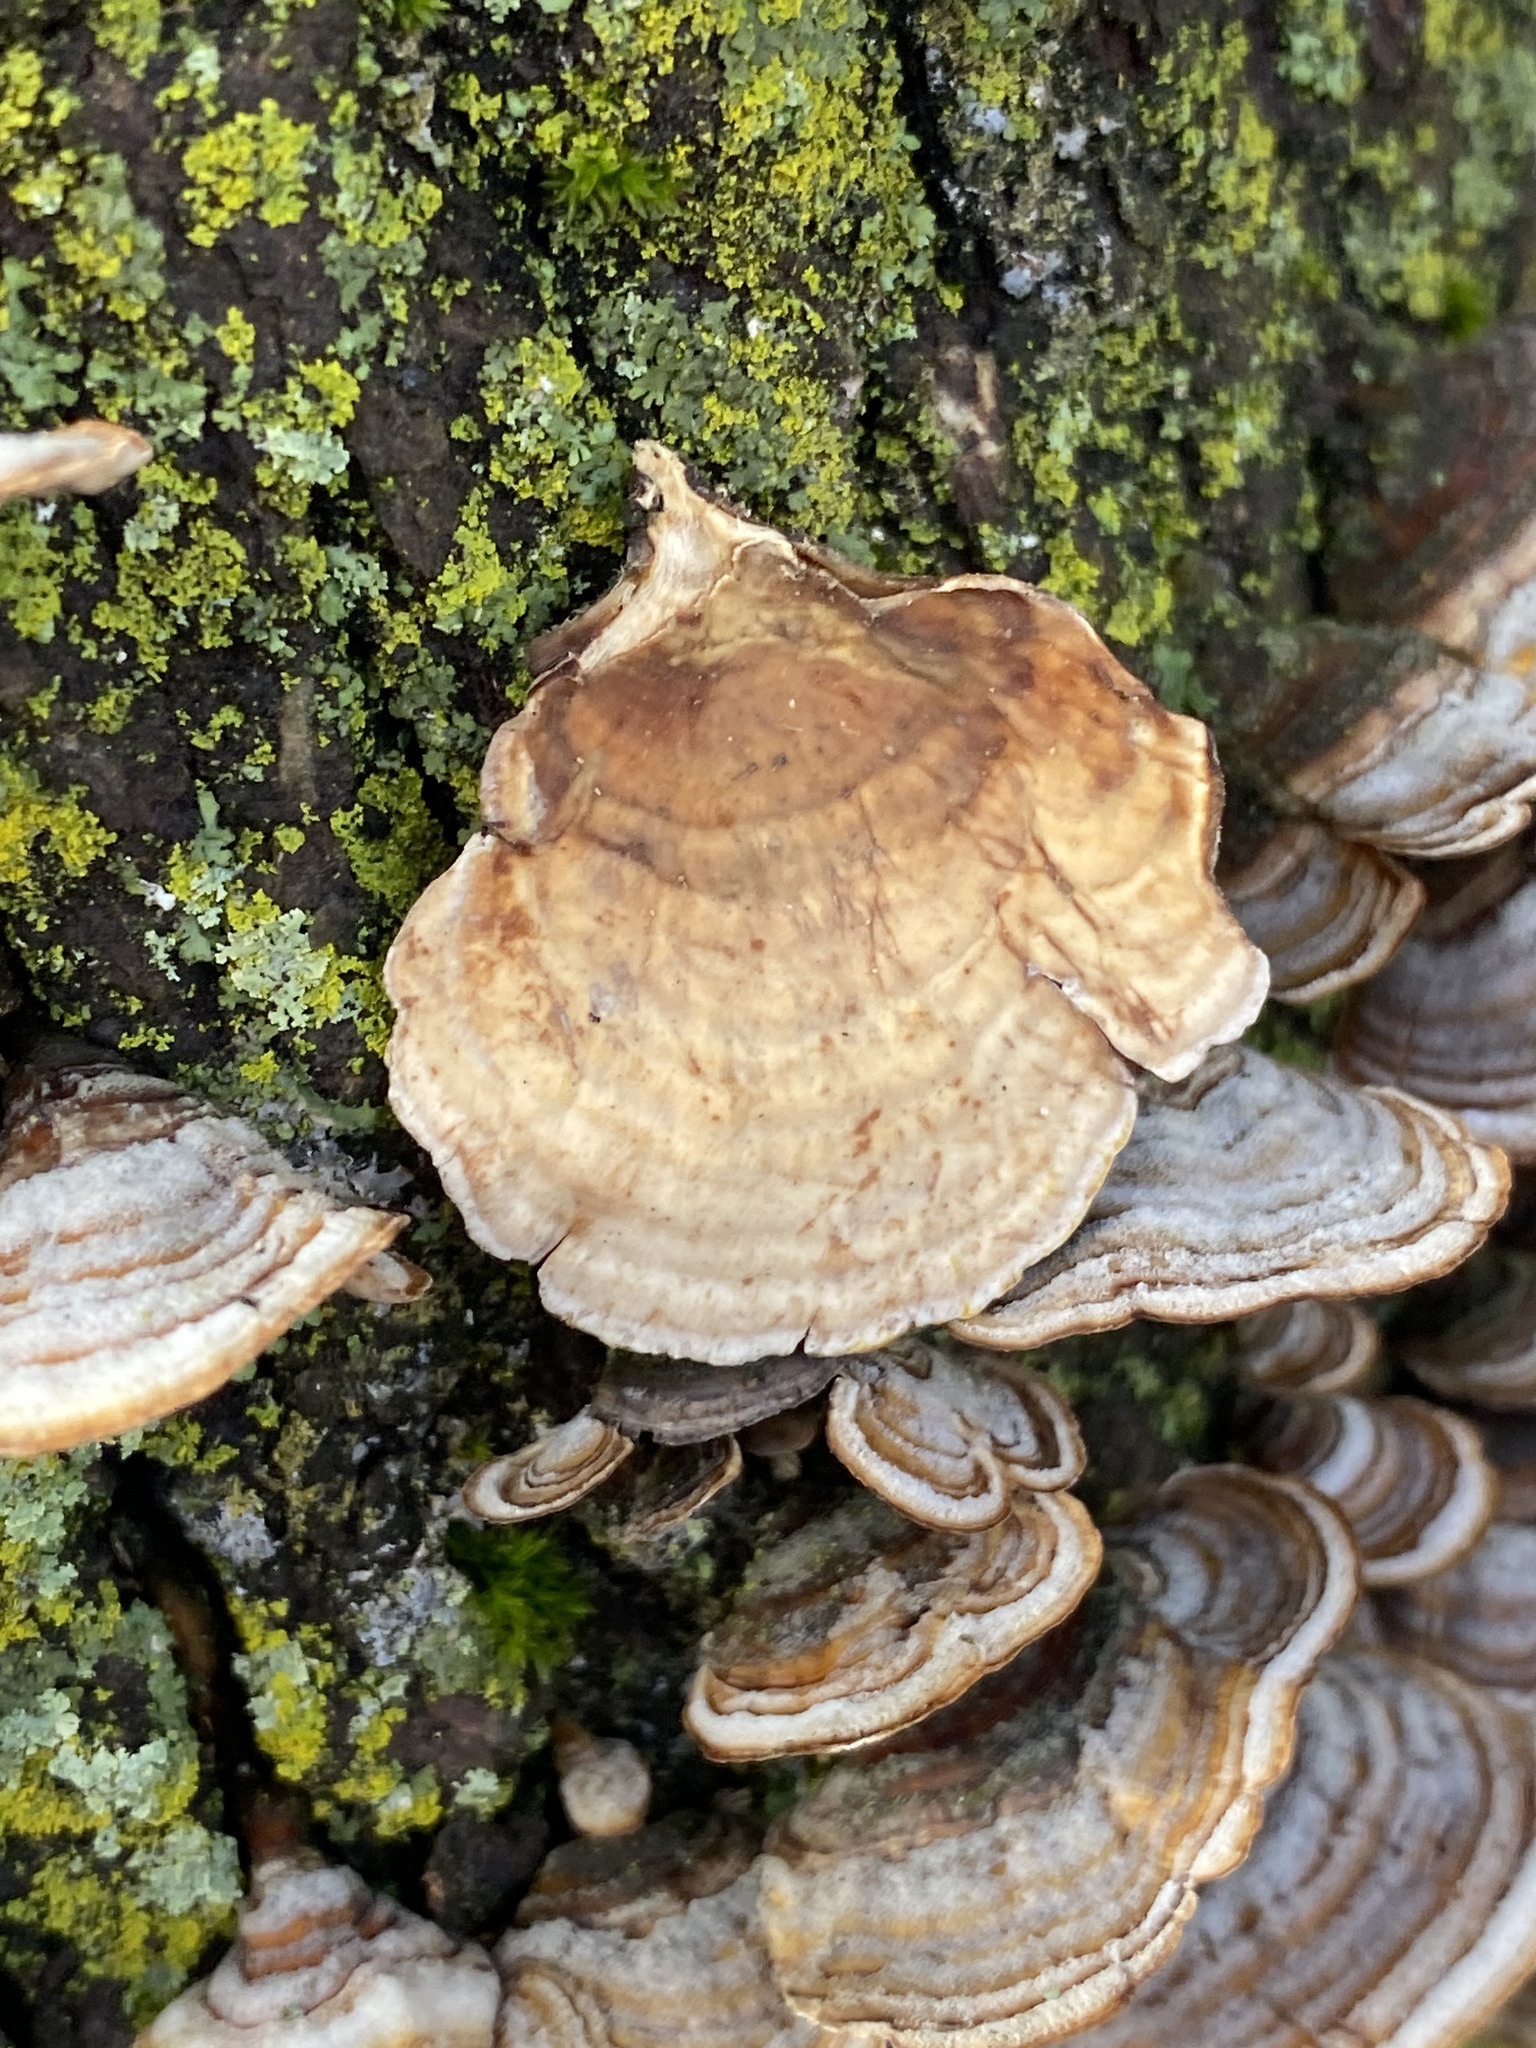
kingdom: Fungi
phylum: Basidiomycota
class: Agaricomycetes
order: Russulales
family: Stereaceae
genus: Stereum
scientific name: Stereum lobatum
